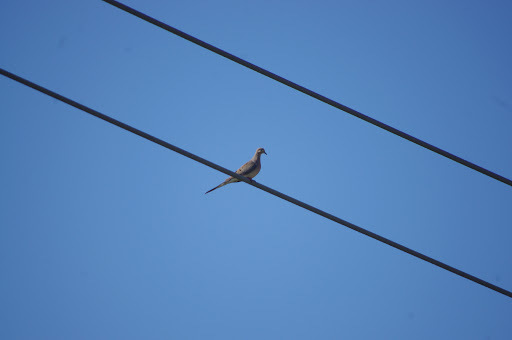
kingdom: Animalia
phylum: Chordata
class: Aves
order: Columbiformes
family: Columbidae
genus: Zenaida
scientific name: Zenaida macroura
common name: Mourning dove
